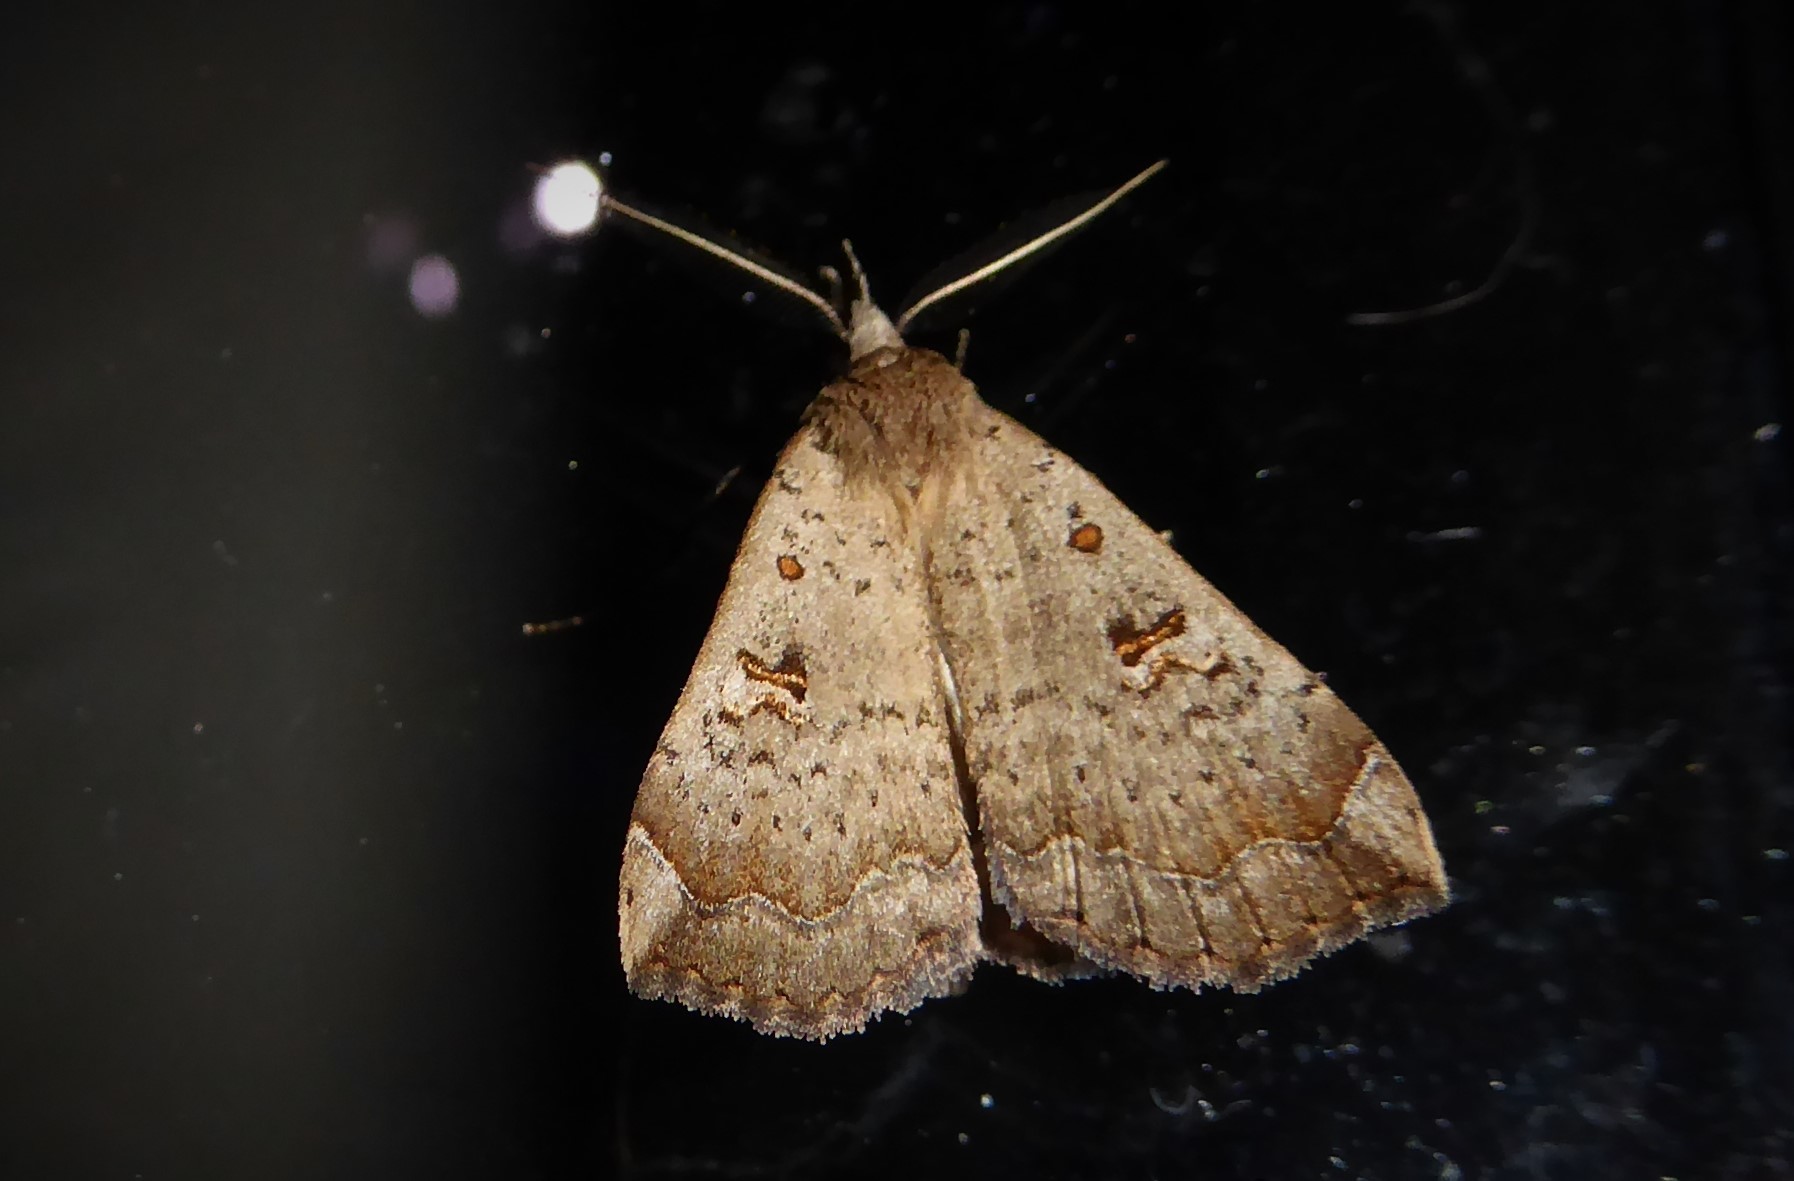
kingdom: Animalia
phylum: Arthropoda
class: Insecta
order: Lepidoptera
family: Erebidae
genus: Rhapsa
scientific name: Rhapsa scotosialis
